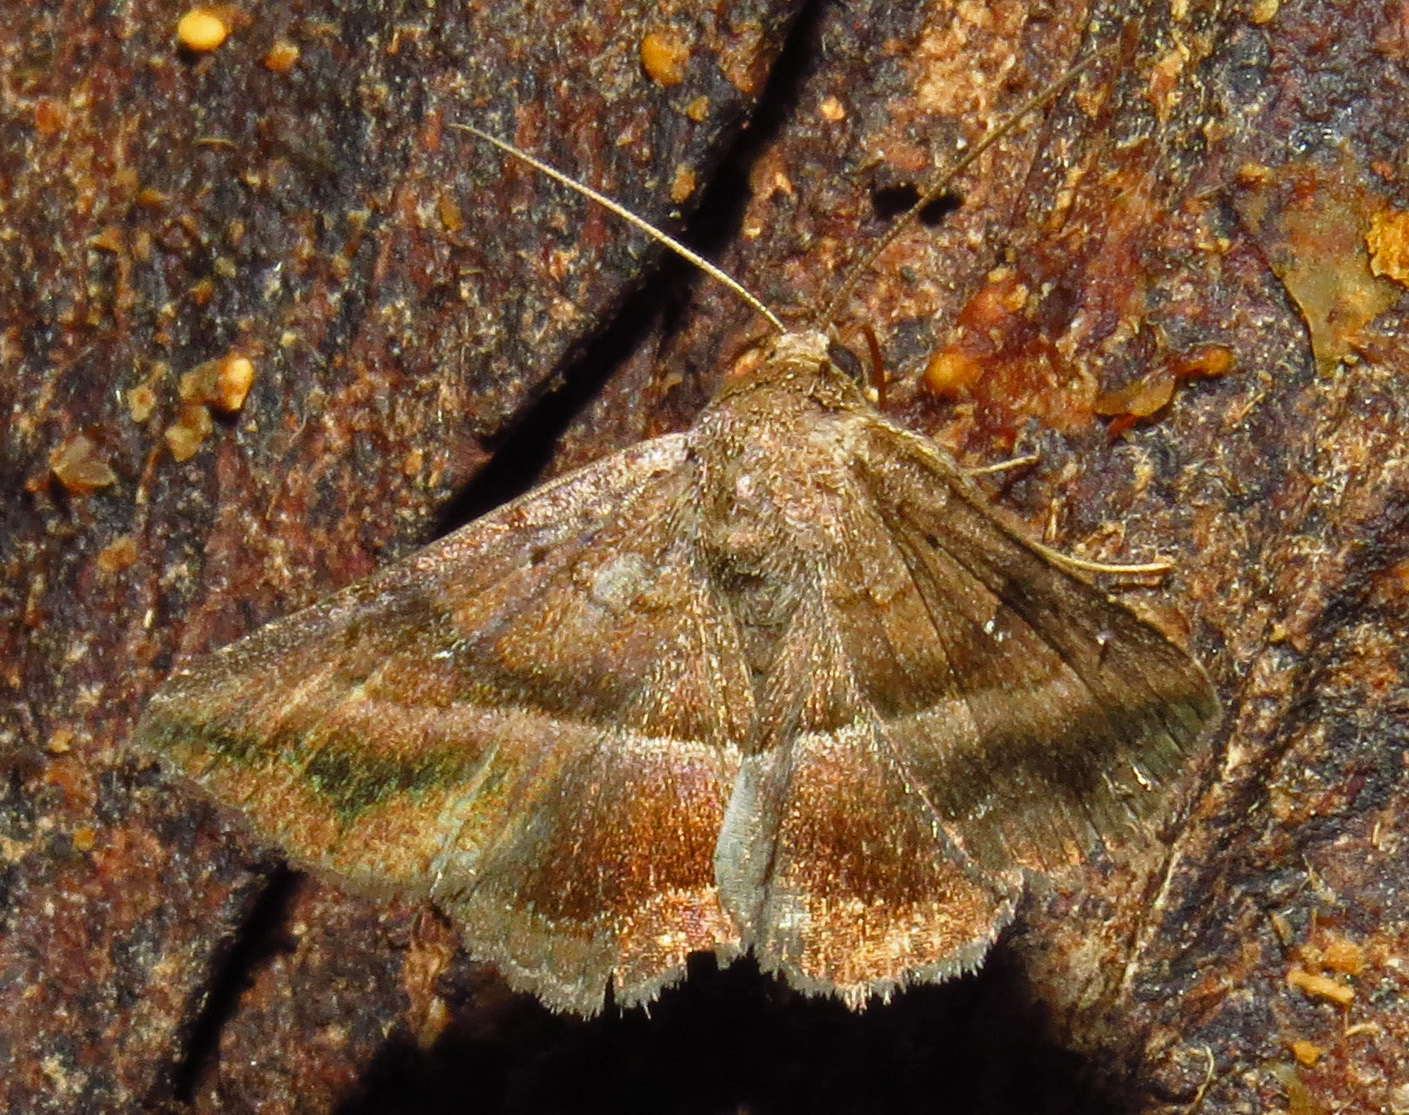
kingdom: Animalia
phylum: Arthropoda
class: Insecta
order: Lepidoptera
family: Erebidae
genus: Lesmone
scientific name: Lesmone detrahens
